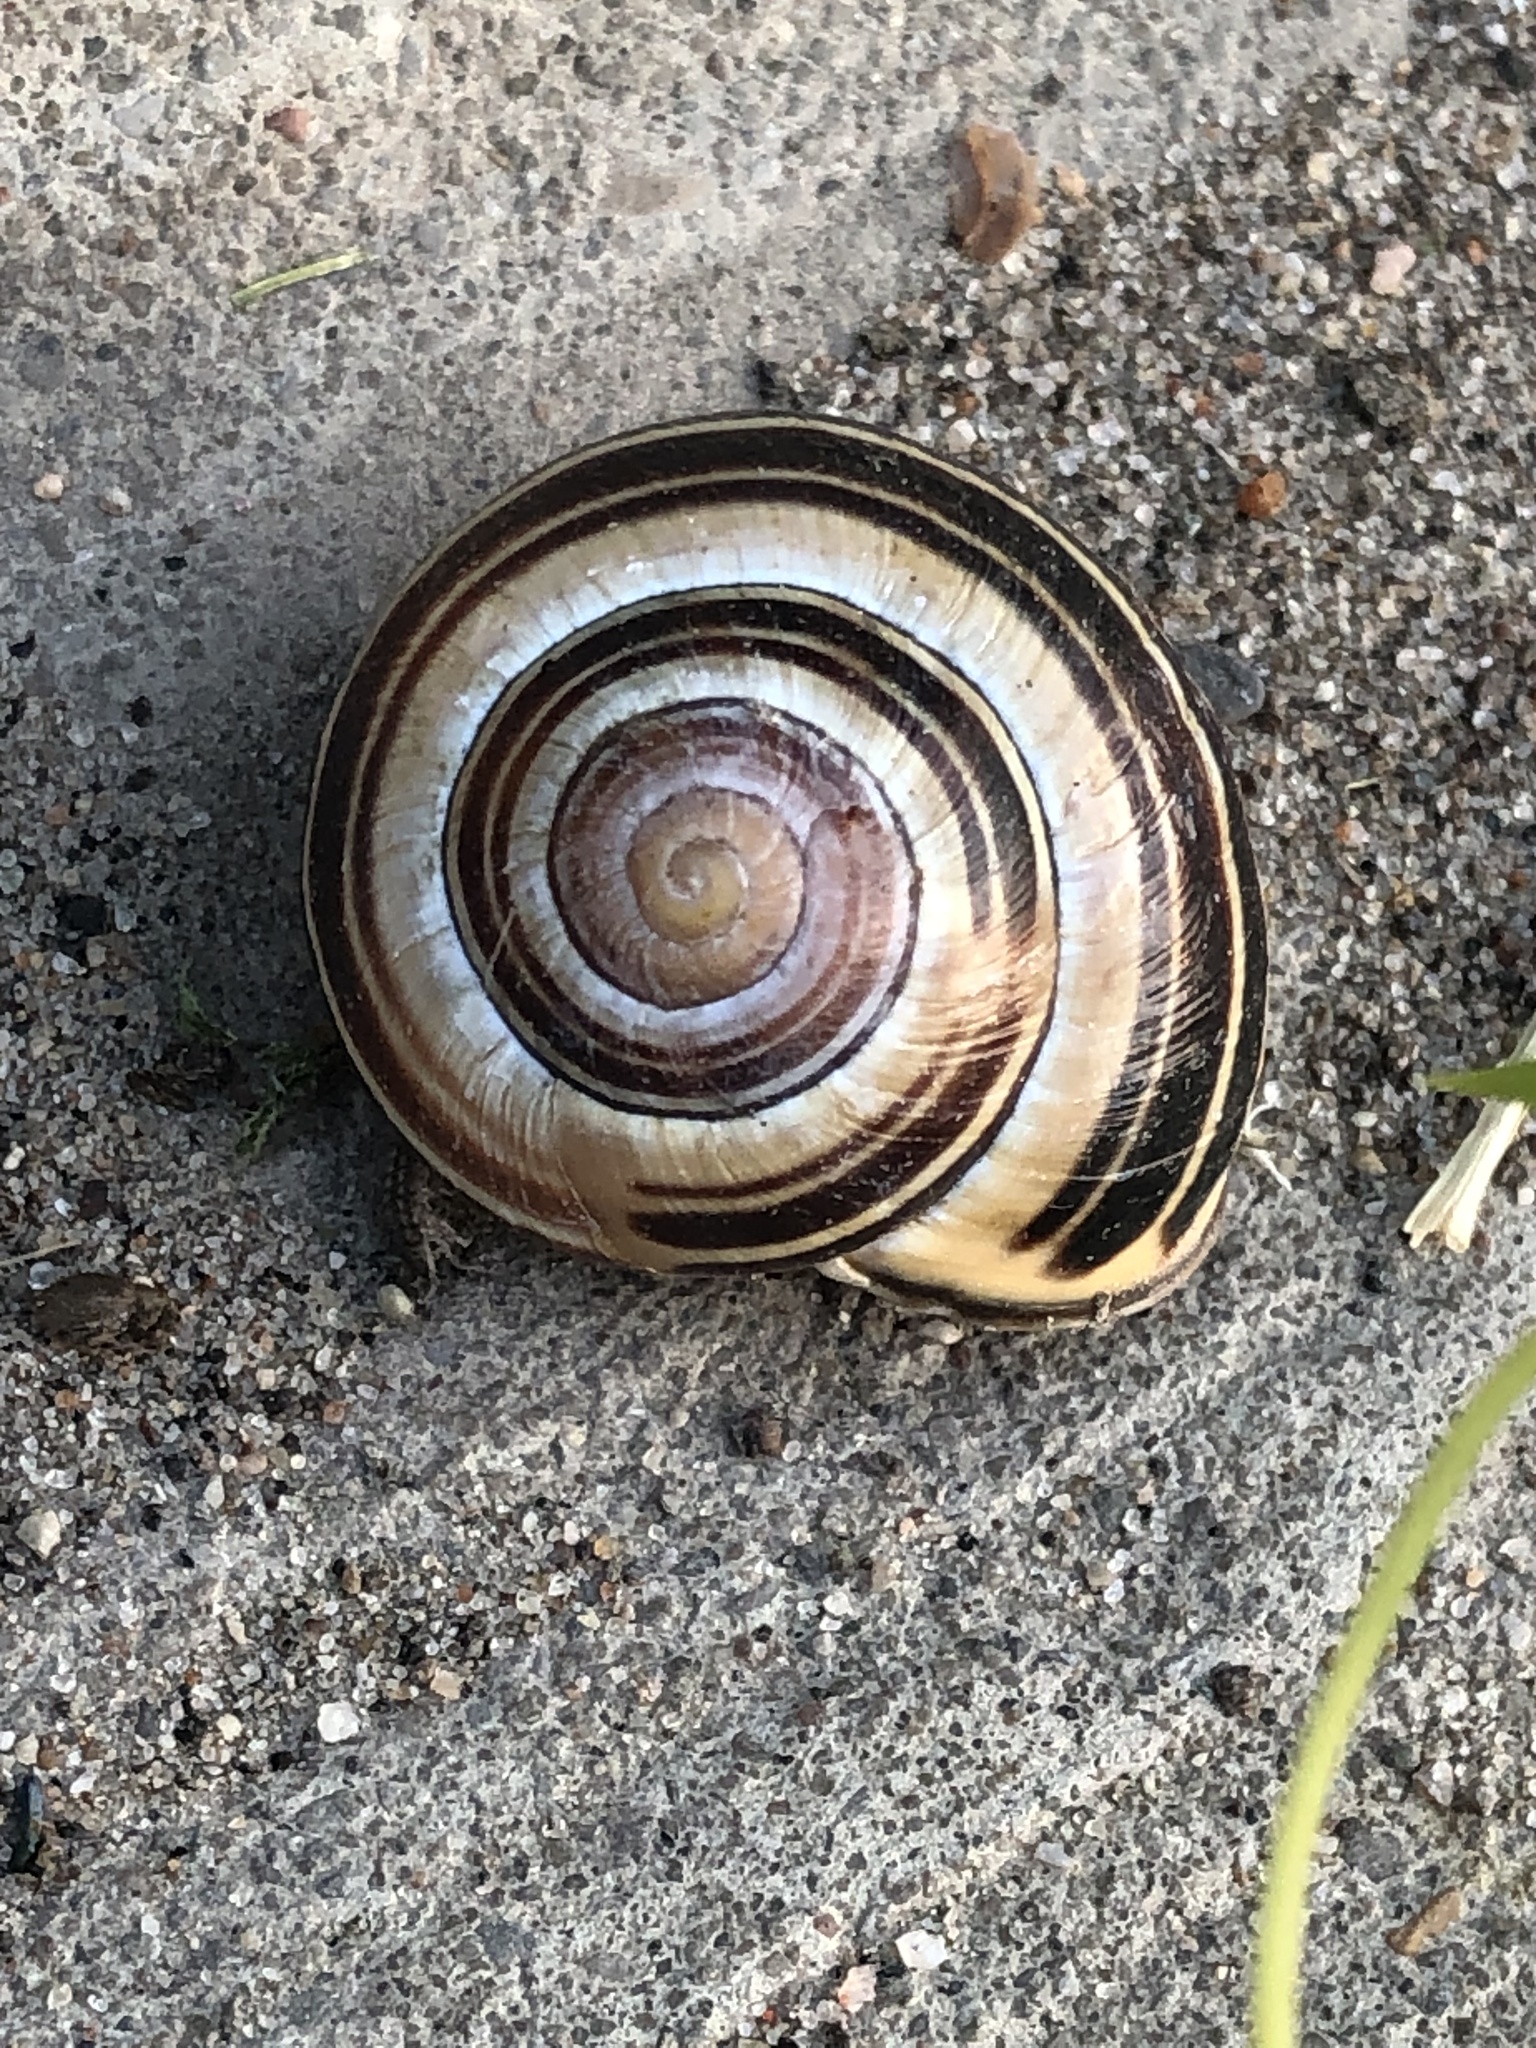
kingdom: Animalia
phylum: Mollusca
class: Gastropoda
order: Stylommatophora
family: Helicidae
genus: Cepaea
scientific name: Cepaea nemoralis
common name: Grovesnail
